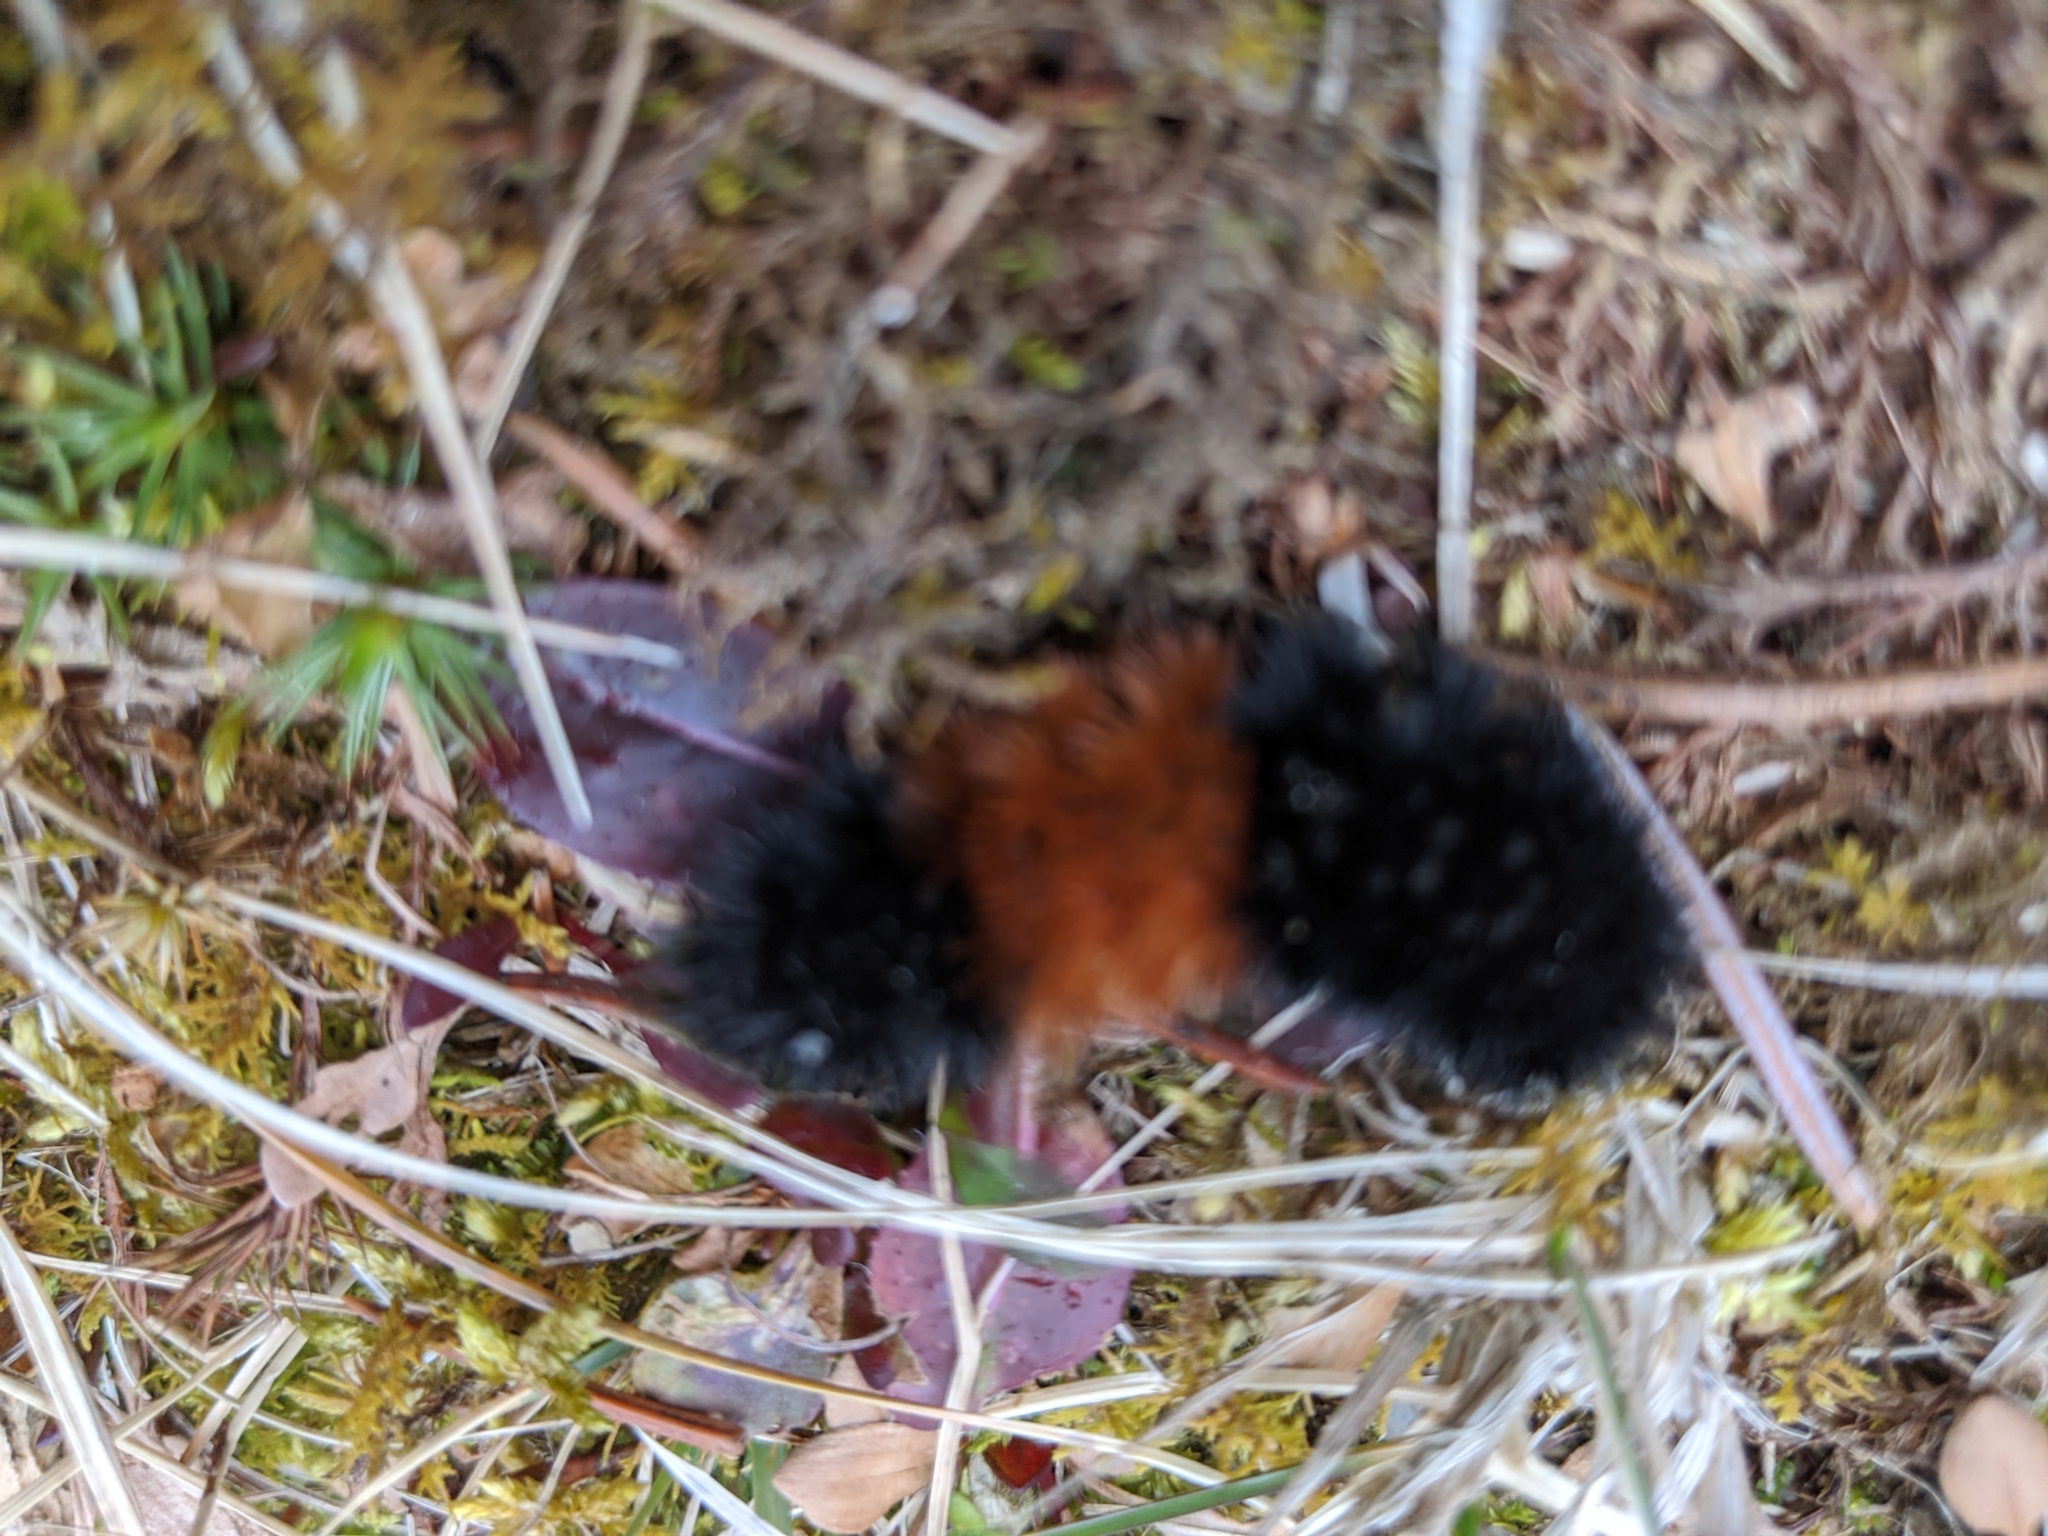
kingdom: Animalia
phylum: Arthropoda
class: Insecta
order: Lepidoptera
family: Erebidae
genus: Pyrrharctia
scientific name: Pyrrharctia isabella
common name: Isabella tiger moth
